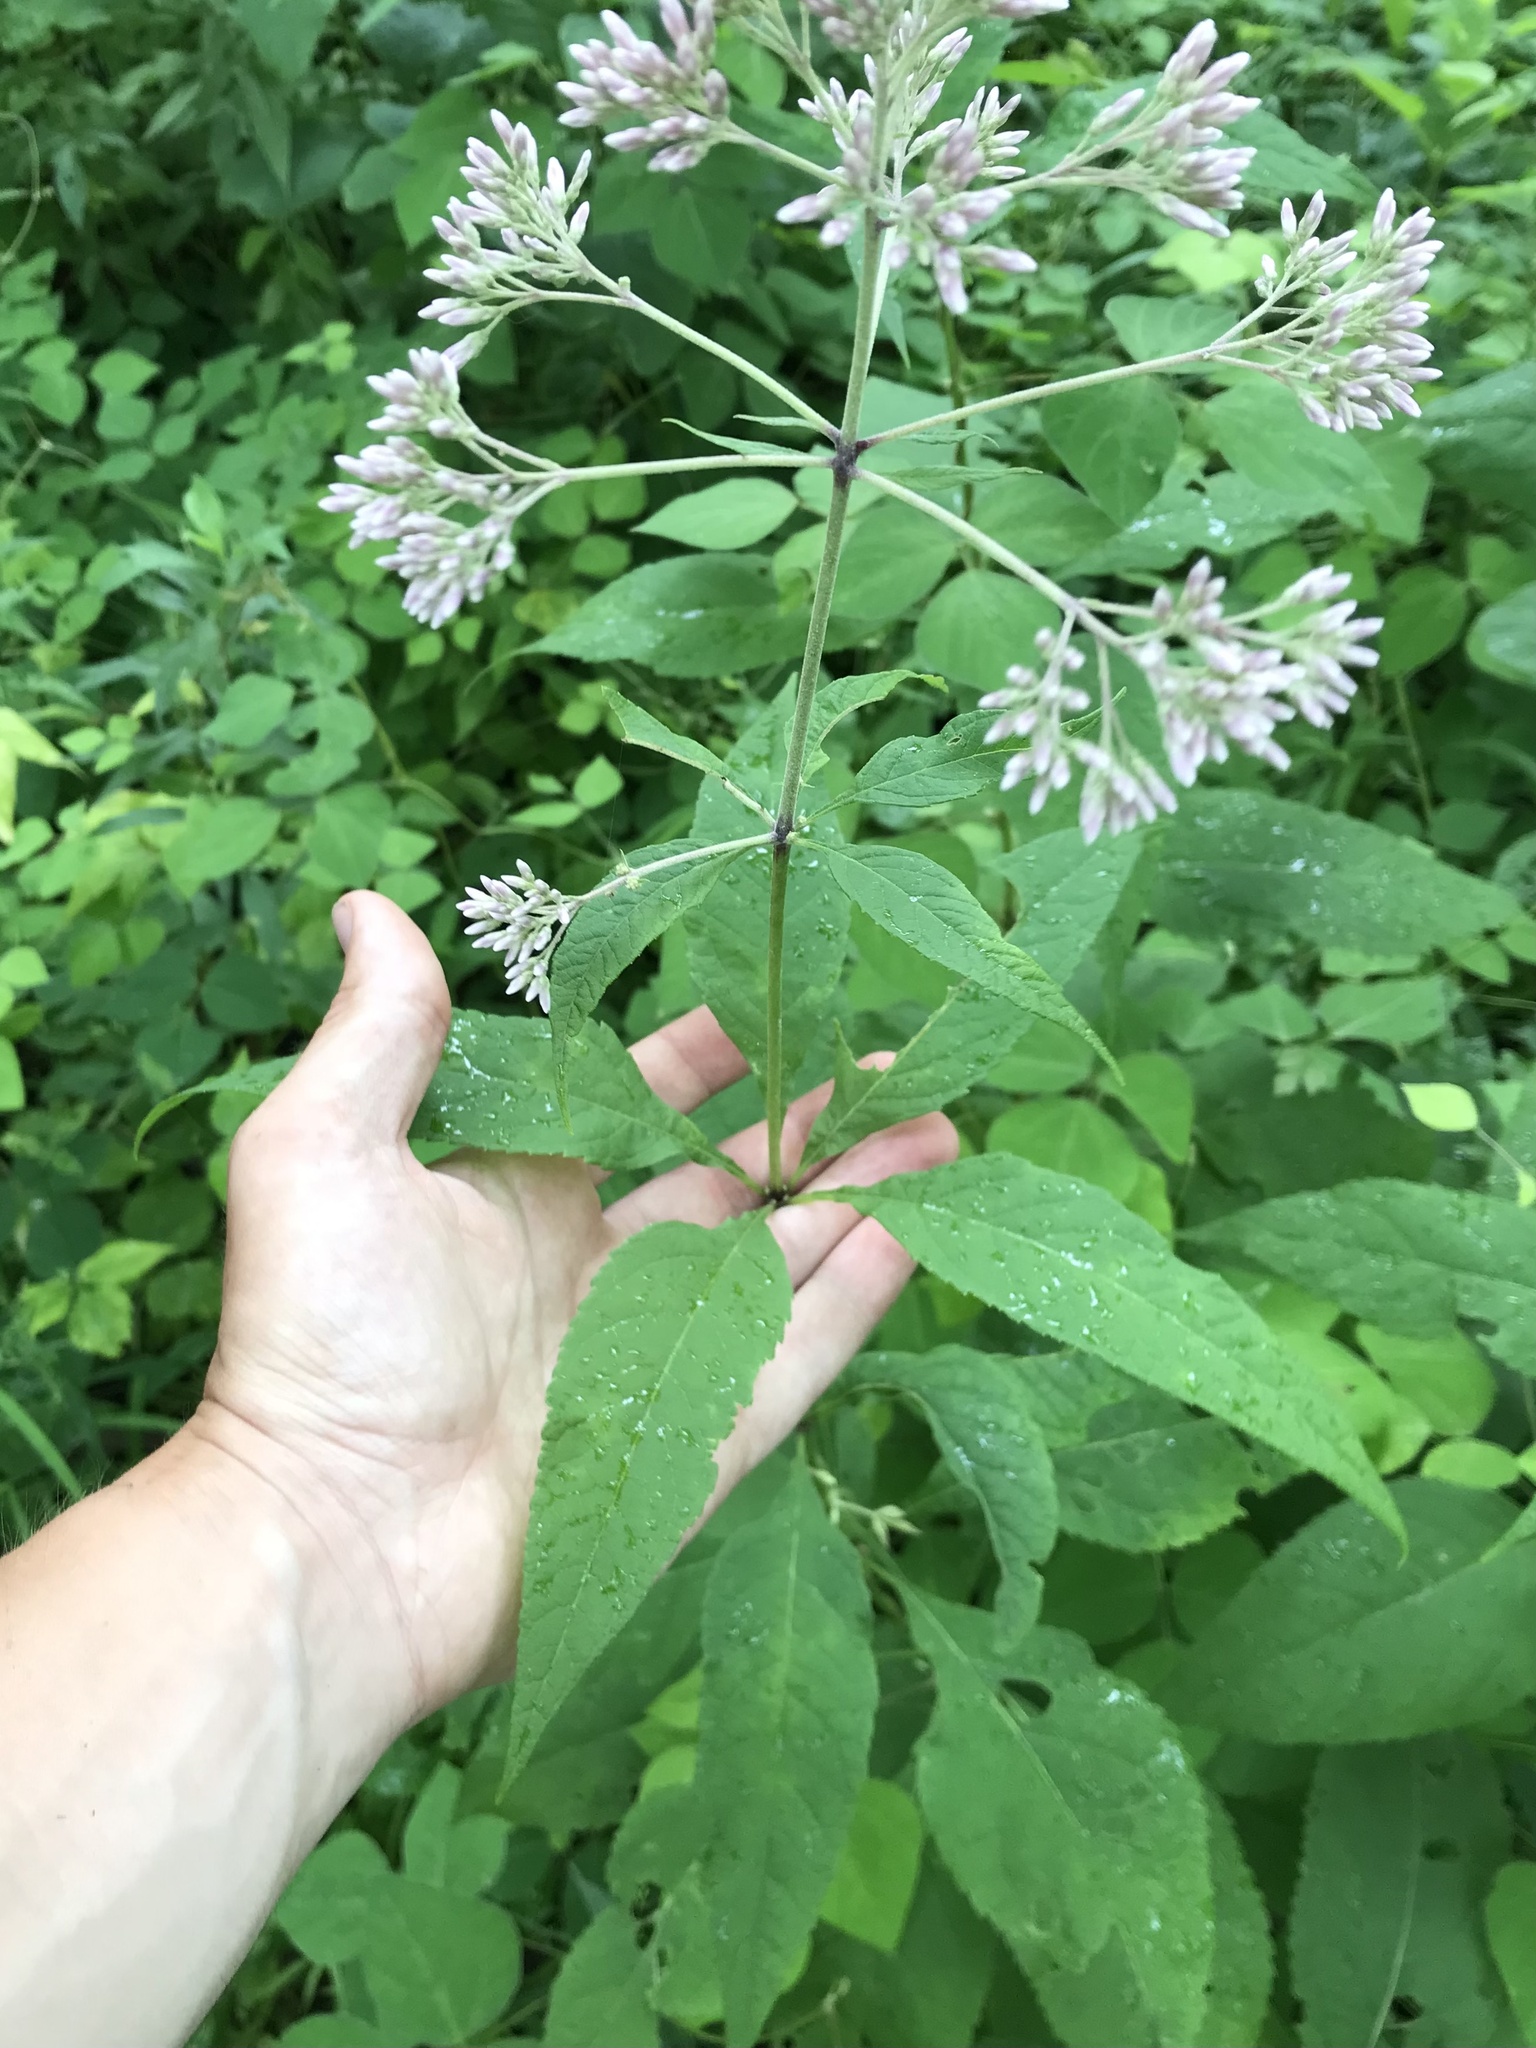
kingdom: Plantae
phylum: Tracheophyta
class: Magnoliopsida
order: Asterales
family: Asteraceae
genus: Eutrochium
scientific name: Eutrochium purpureum
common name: Gravelroot
